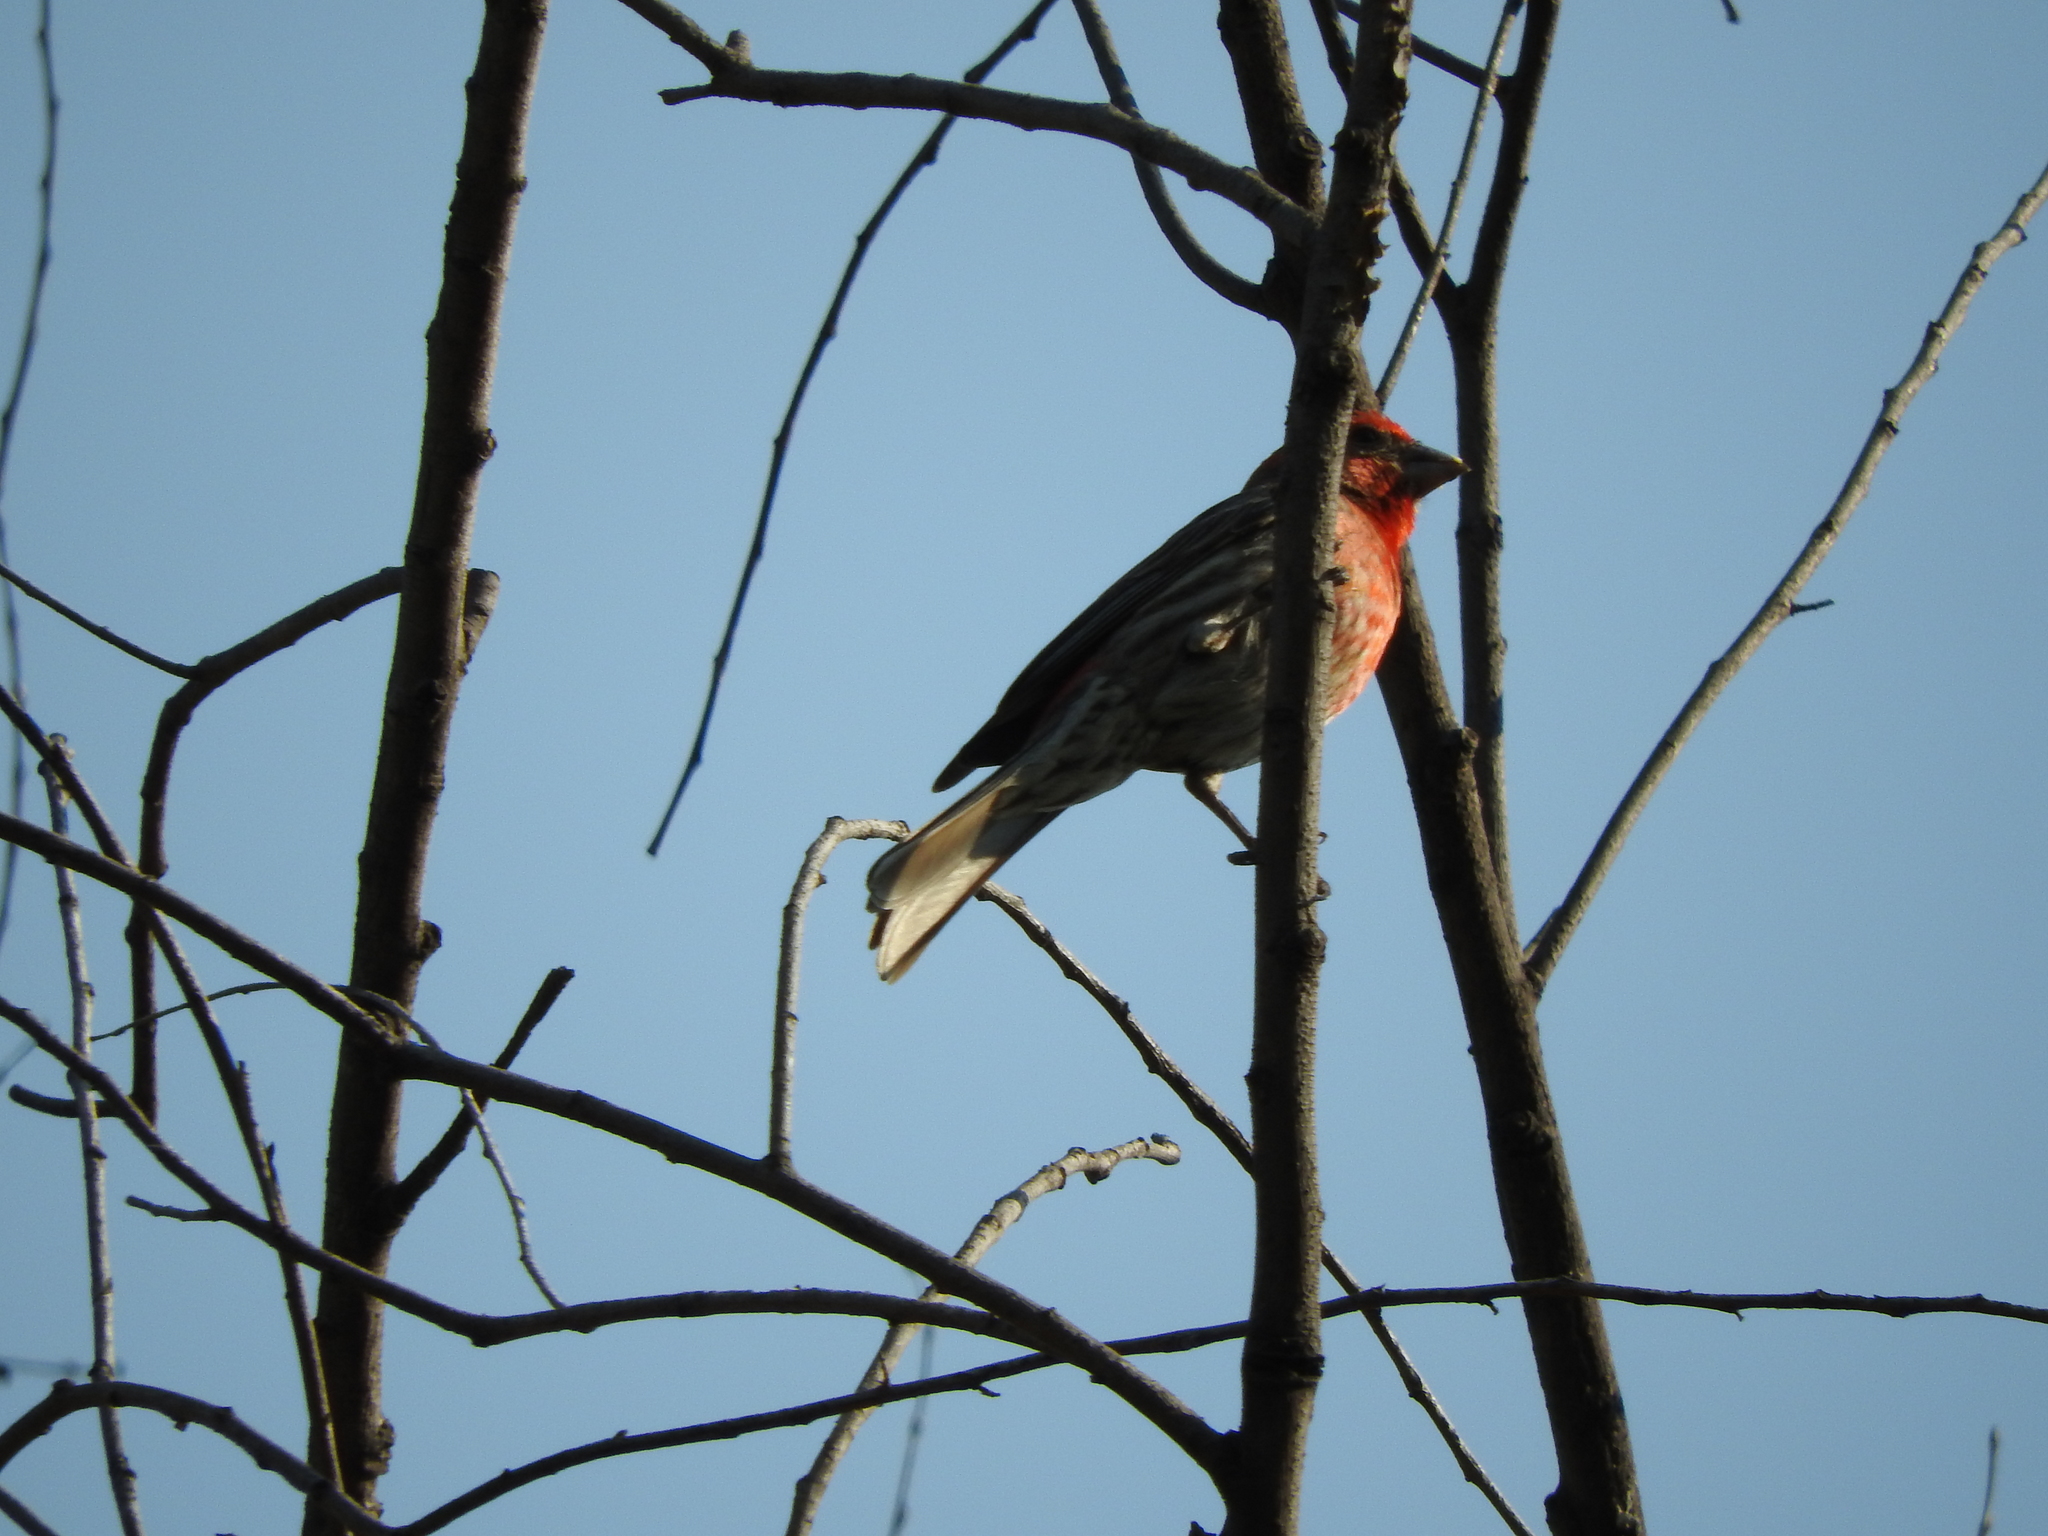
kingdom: Animalia
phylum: Chordata
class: Aves
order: Passeriformes
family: Fringillidae
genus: Haemorhous
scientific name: Haemorhous mexicanus
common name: House finch
